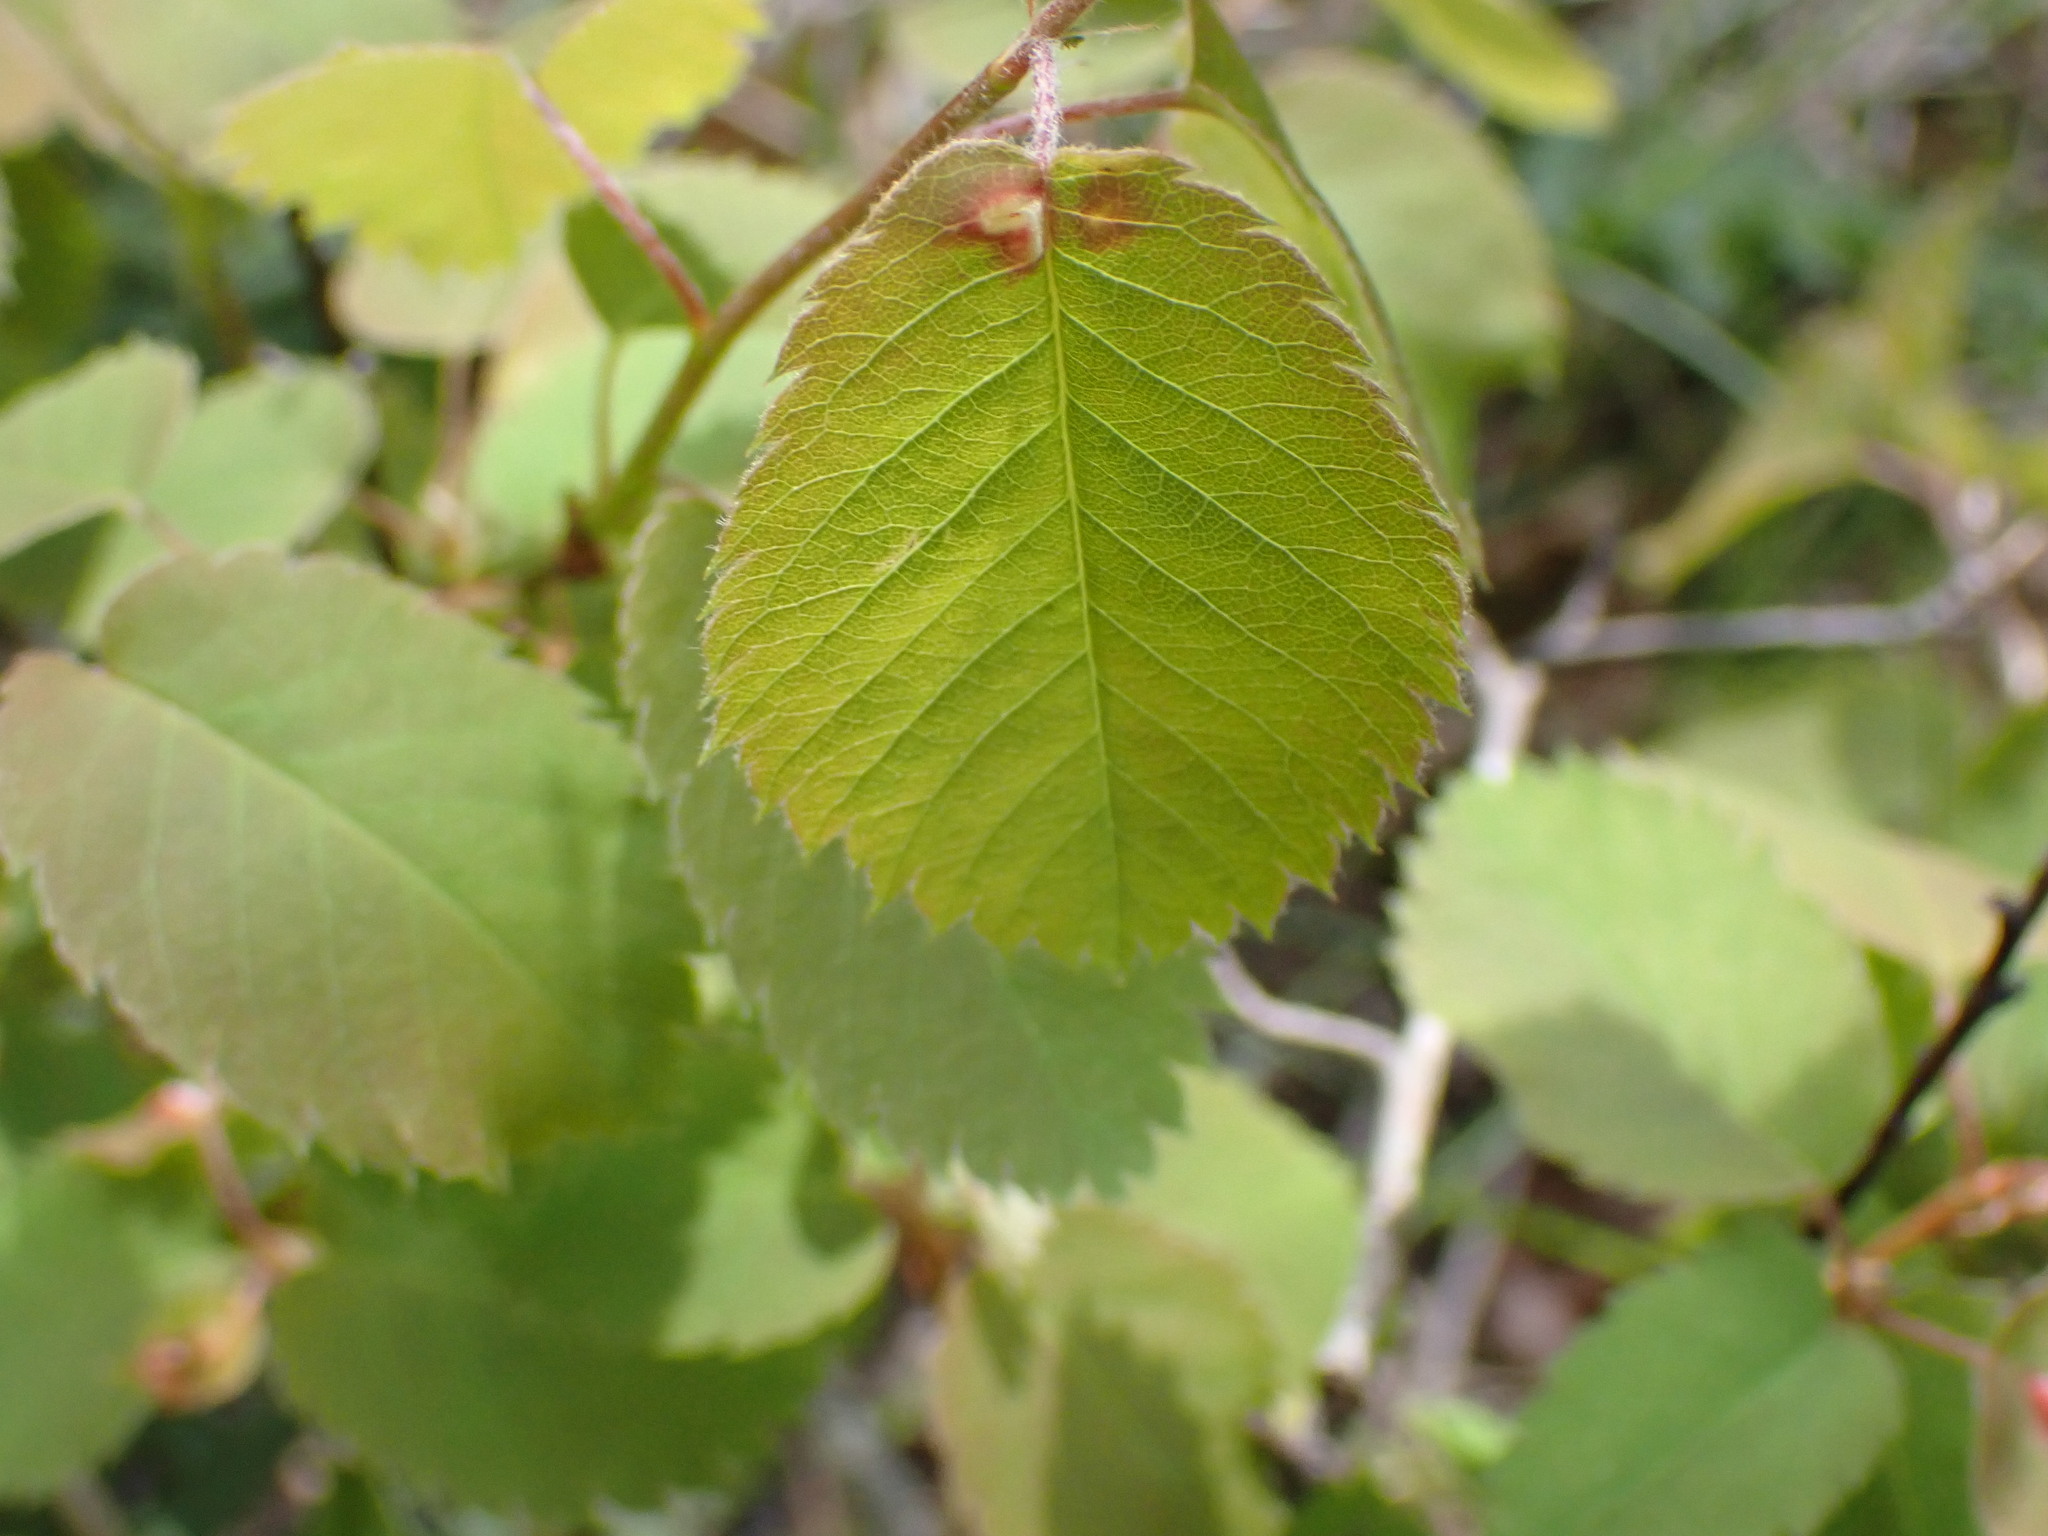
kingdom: Plantae
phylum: Tracheophyta
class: Magnoliopsida
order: Rosales
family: Rosaceae
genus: Amelanchier
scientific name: Amelanchier alnifolia
